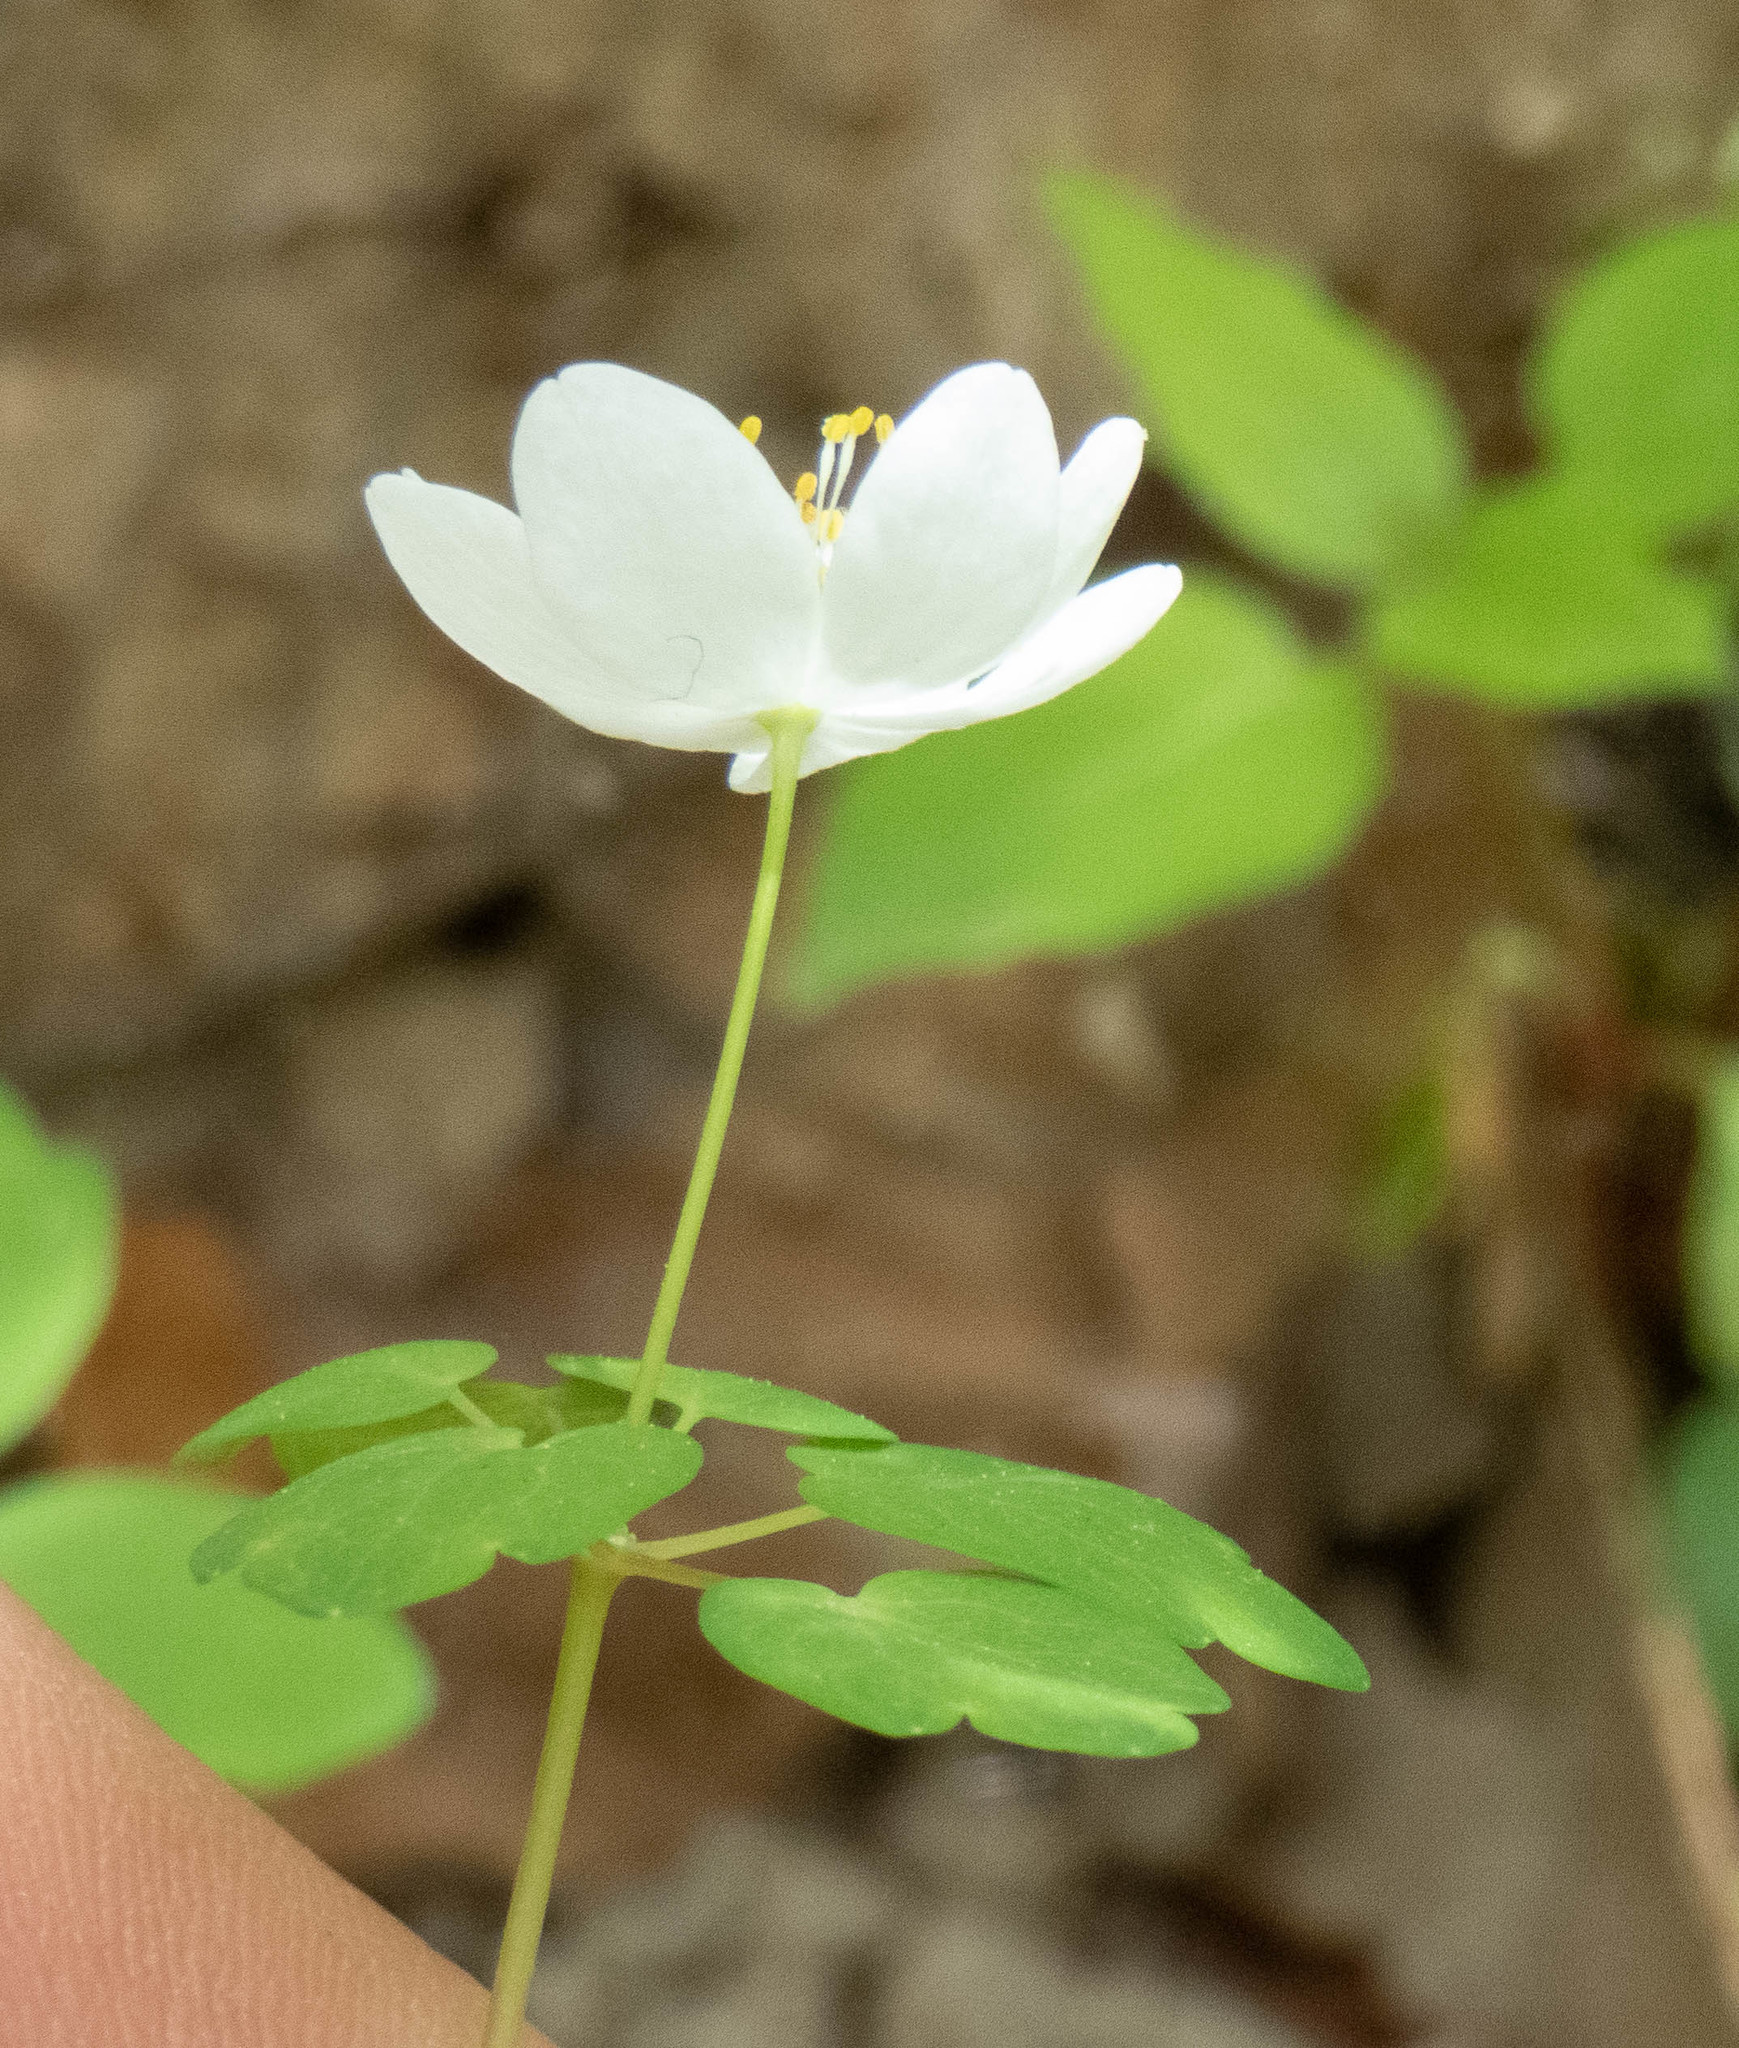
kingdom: Plantae
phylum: Tracheophyta
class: Magnoliopsida
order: Ranunculales
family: Ranunculaceae
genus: Thalictrum
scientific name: Thalictrum thalictroides
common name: Rue-anemone
